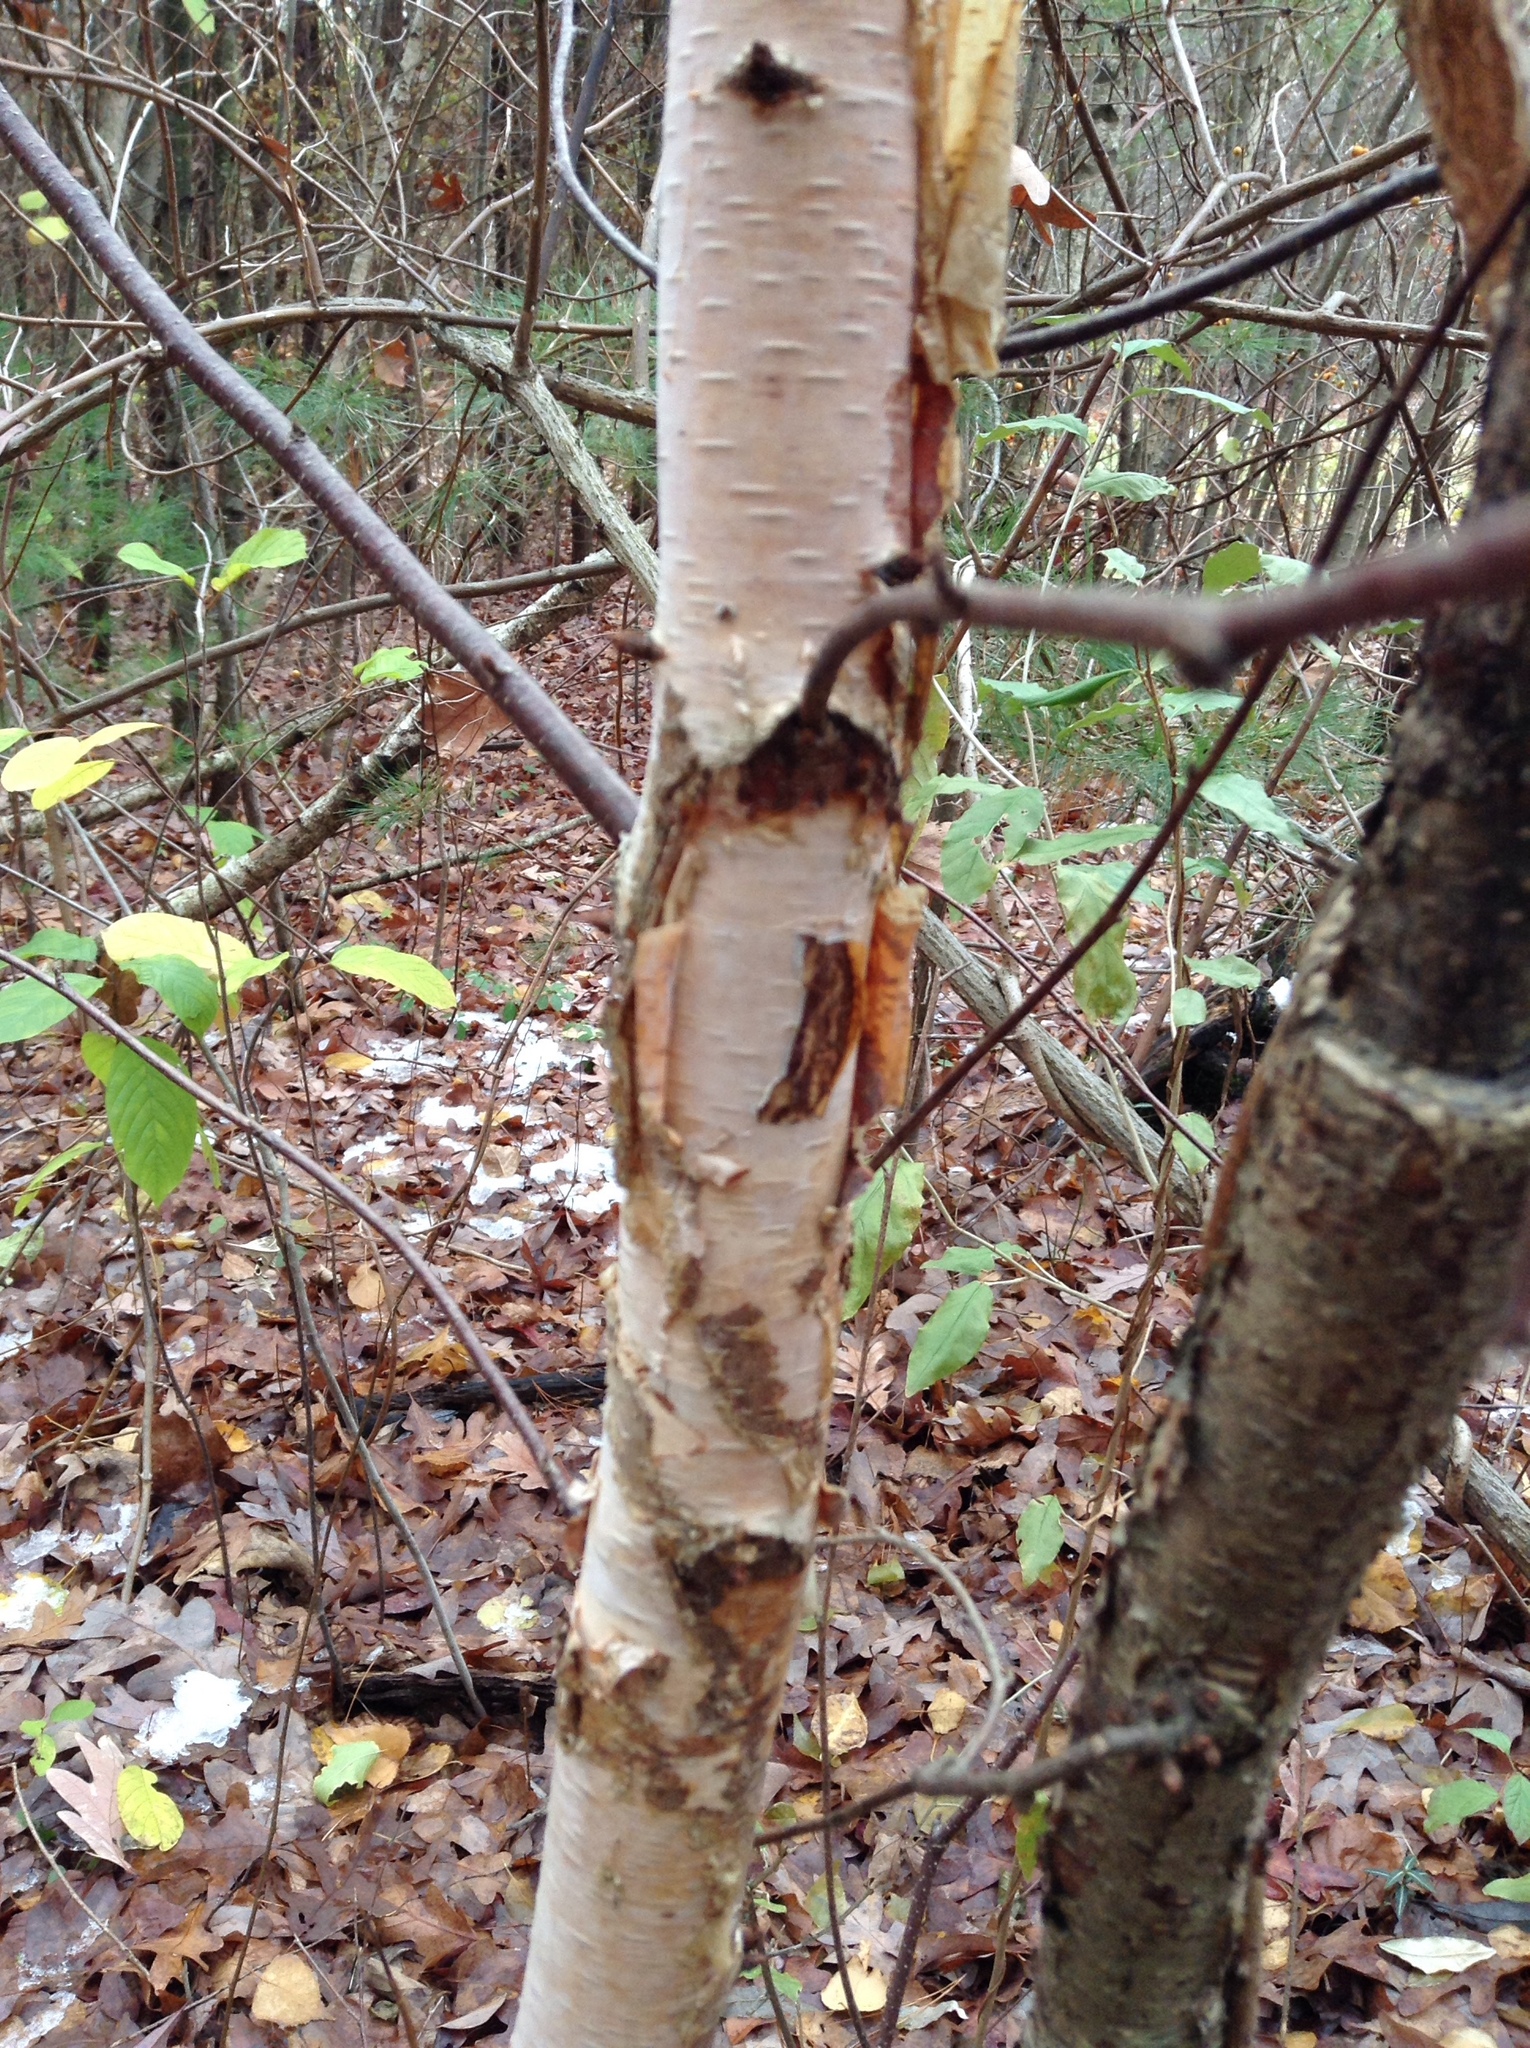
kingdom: Plantae
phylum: Tracheophyta
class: Magnoliopsida
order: Fagales
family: Betulaceae
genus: Betula
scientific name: Betula nigra
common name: Black birch
